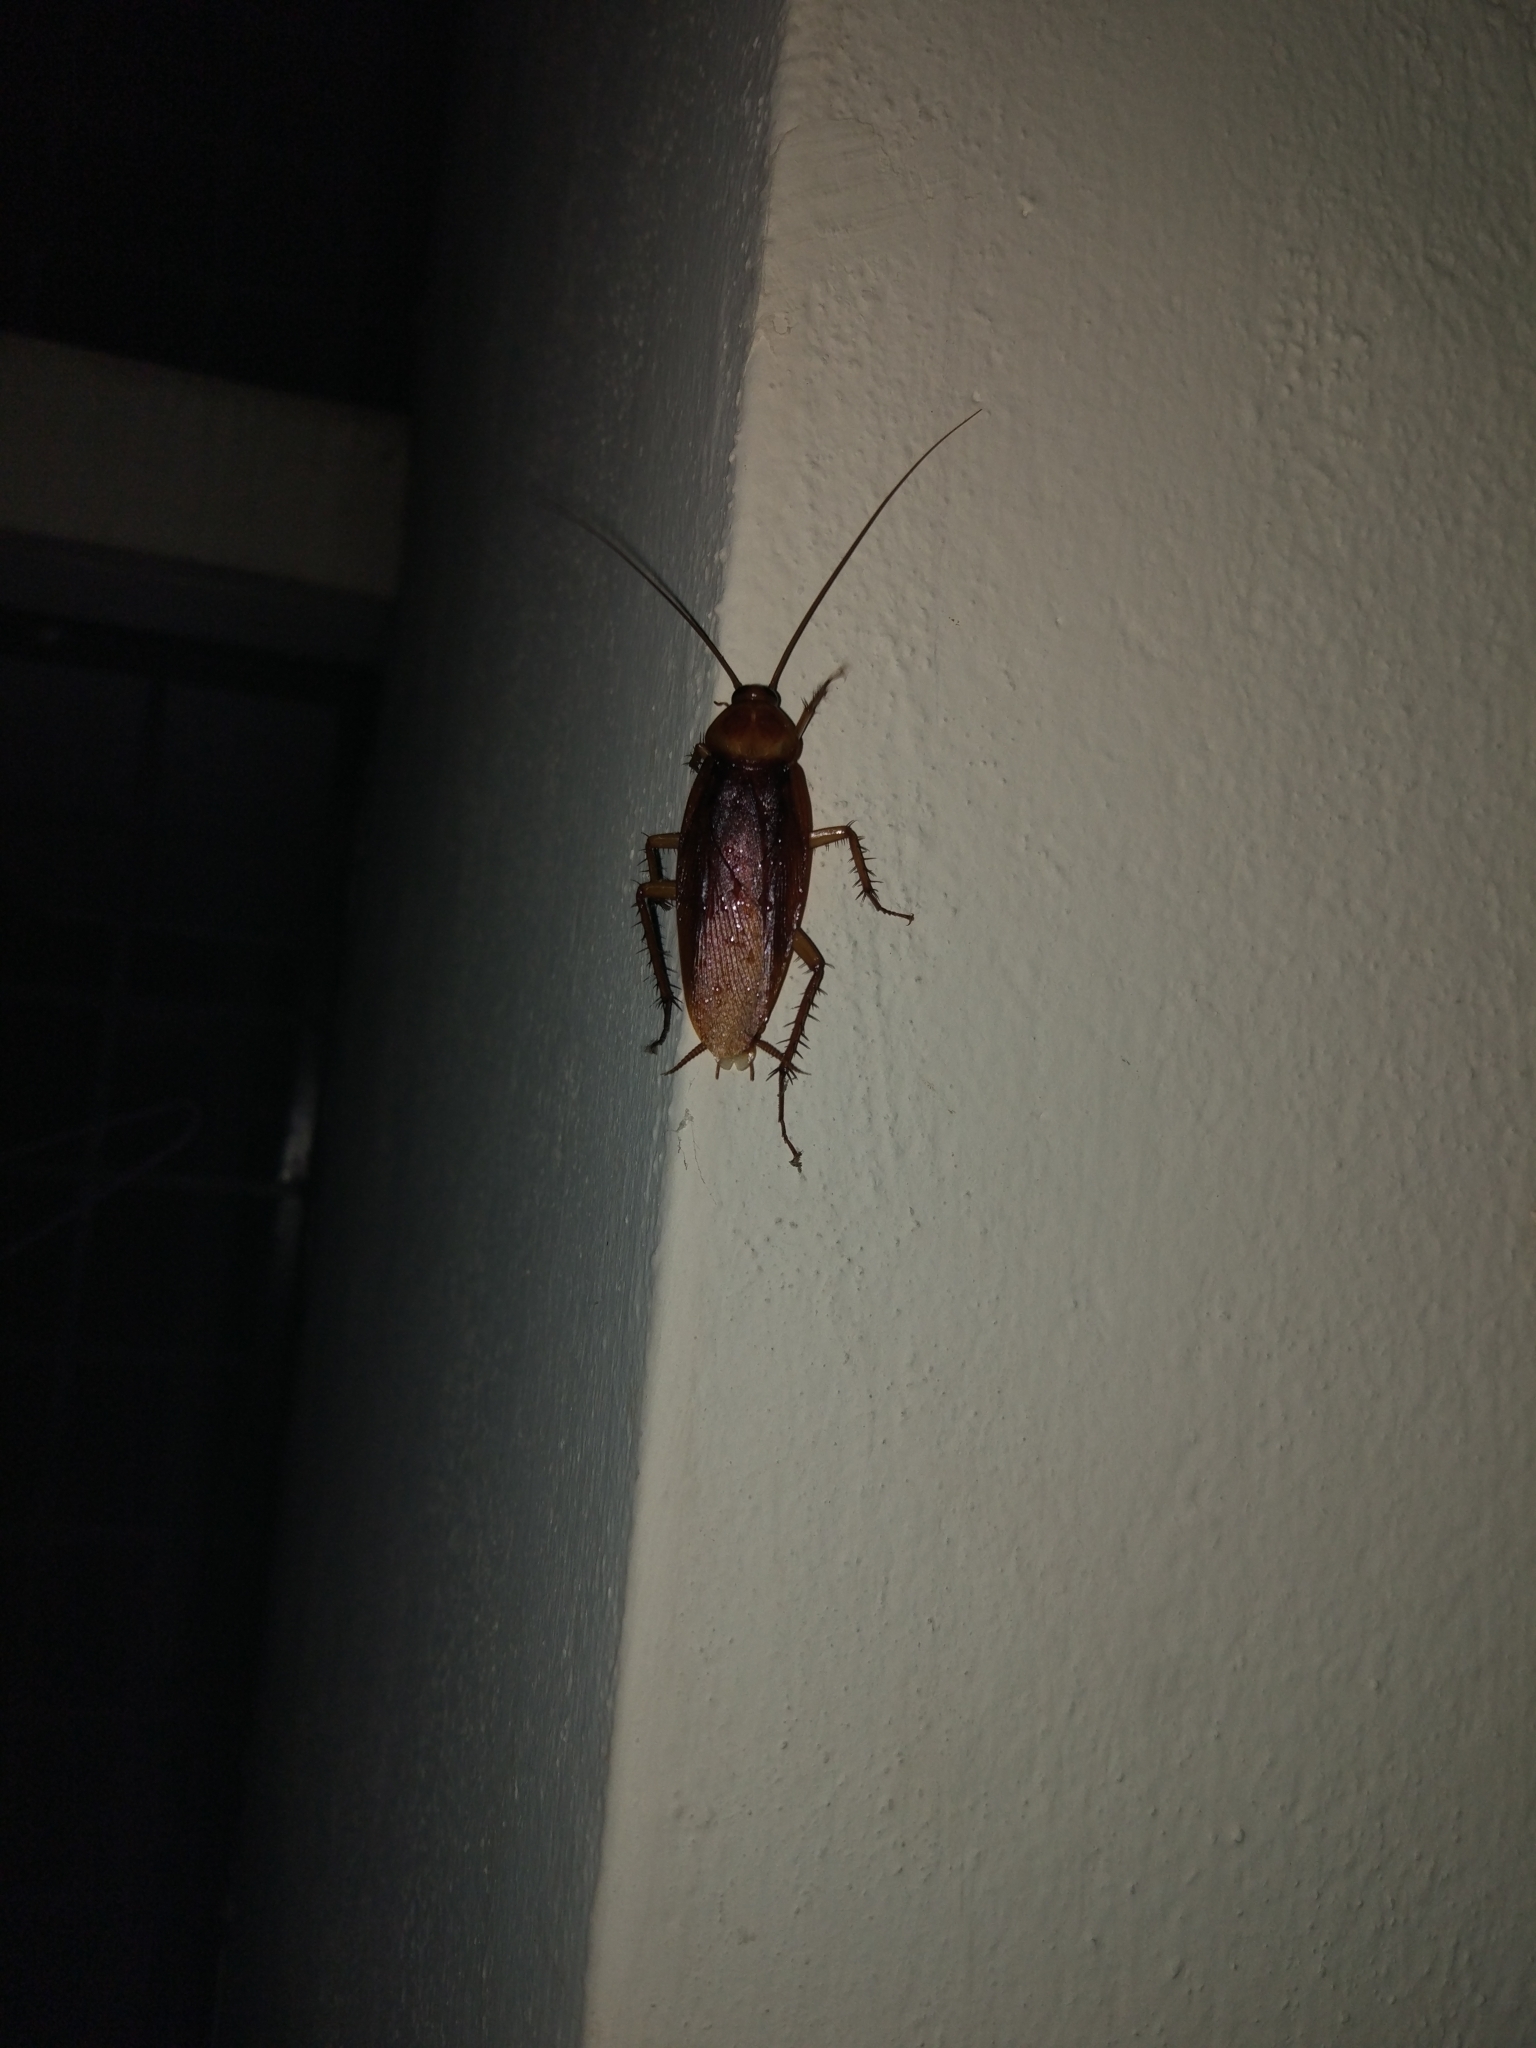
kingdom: Animalia
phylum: Arthropoda
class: Insecta
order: Blattodea
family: Blattidae
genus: Periplaneta
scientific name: Periplaneta americana
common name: American cockroach
